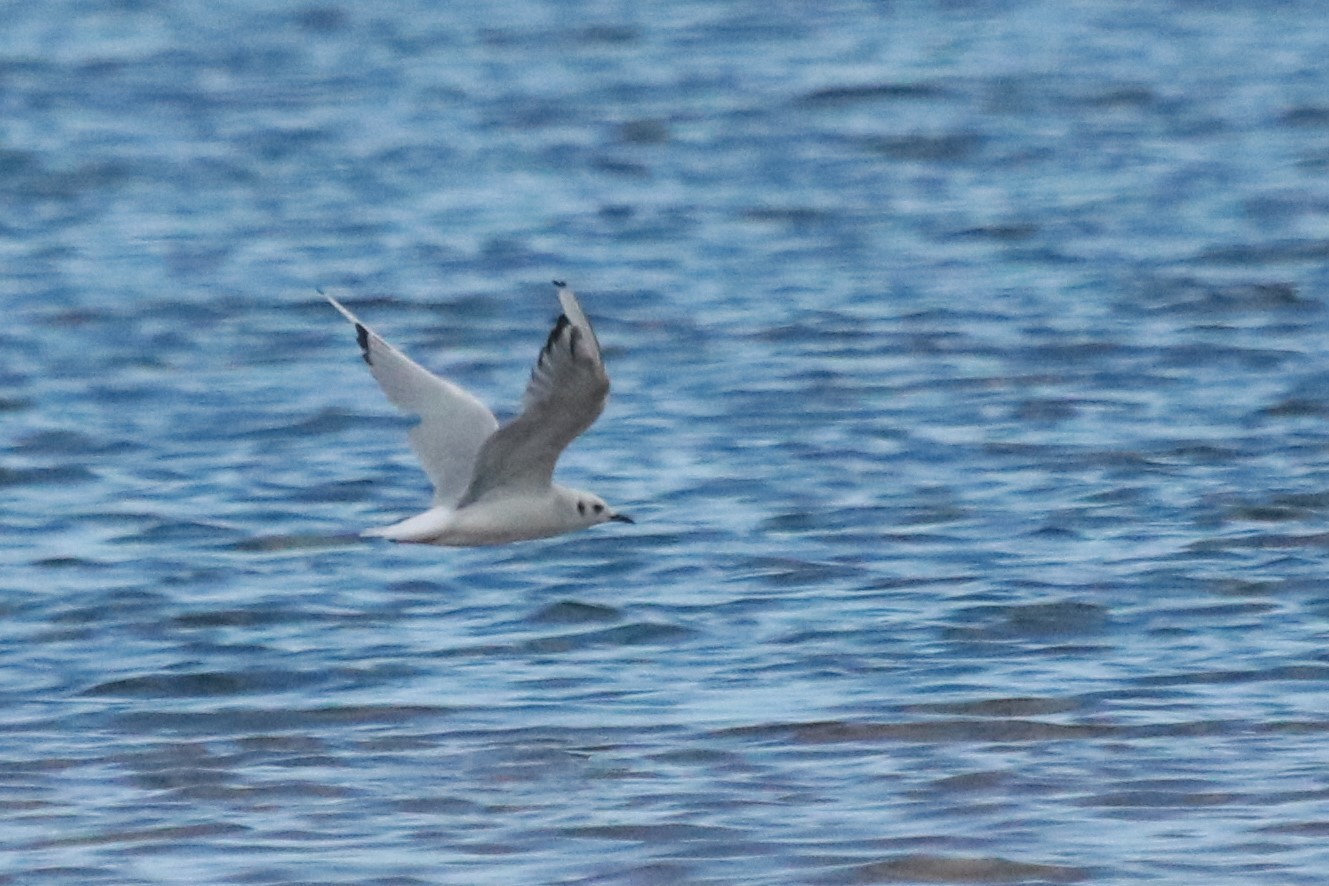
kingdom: Animalia
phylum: Chordata
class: Aves
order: Charadriiformes
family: Laridae
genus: Chroicocephalus
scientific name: Chroicocephalus philadelphia
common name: Bonaparte's gull
